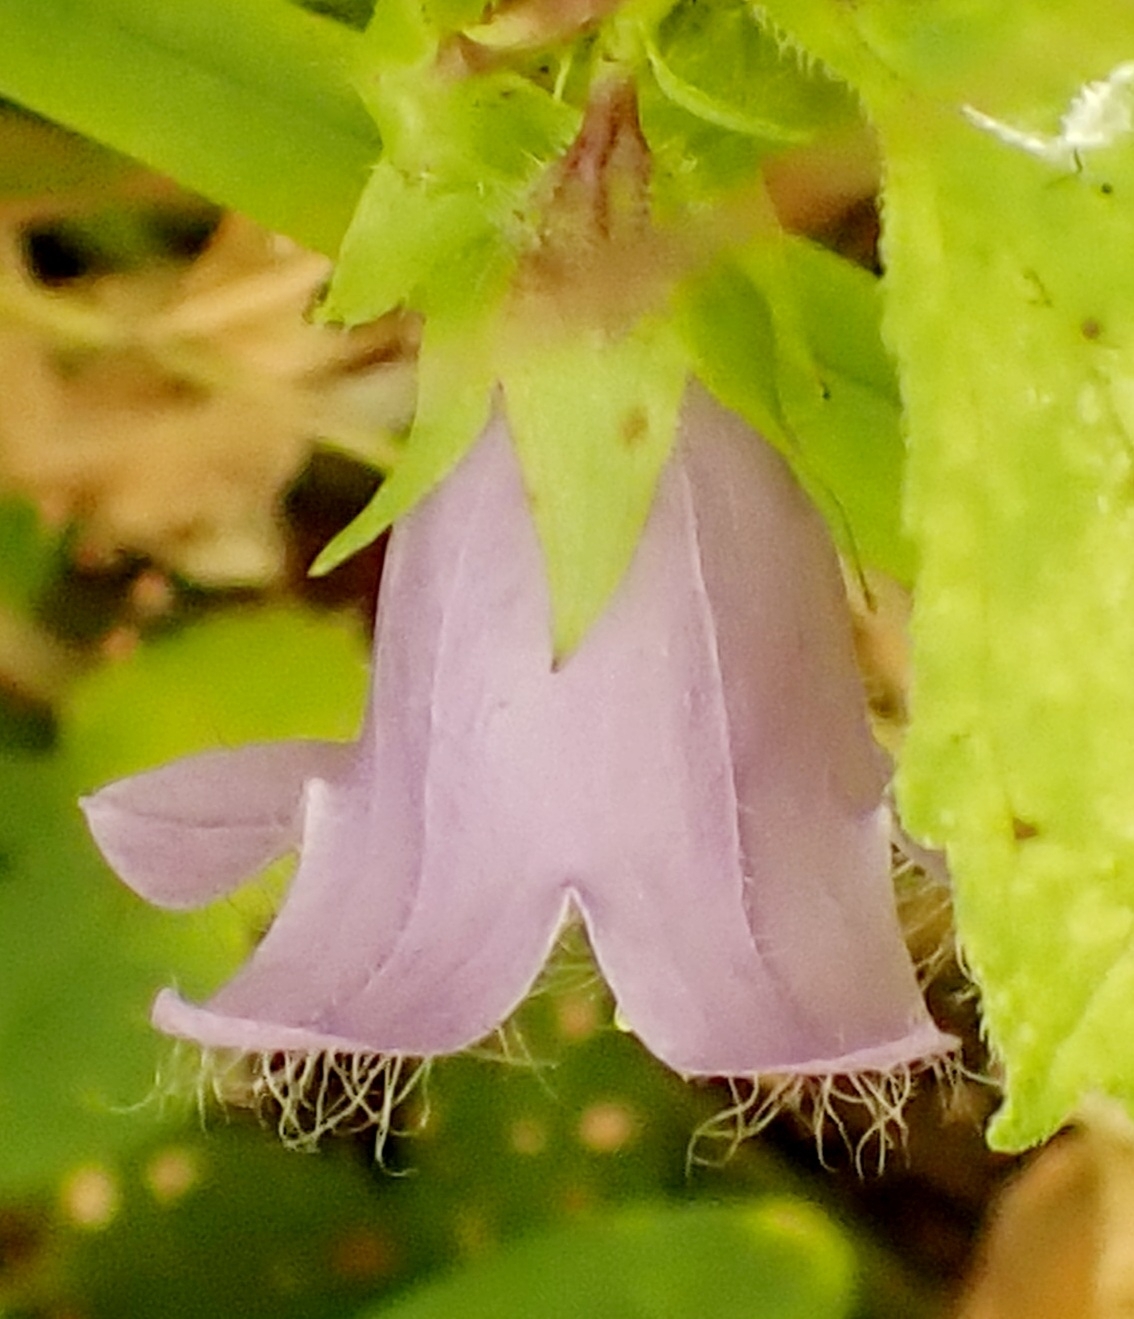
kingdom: Plantae
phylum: Tracheophyta
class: Magnoliopsida
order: Asterales
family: Campanulaceae
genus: Campanula
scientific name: Campanula trachelium
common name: Nettle-leaved bellflower
